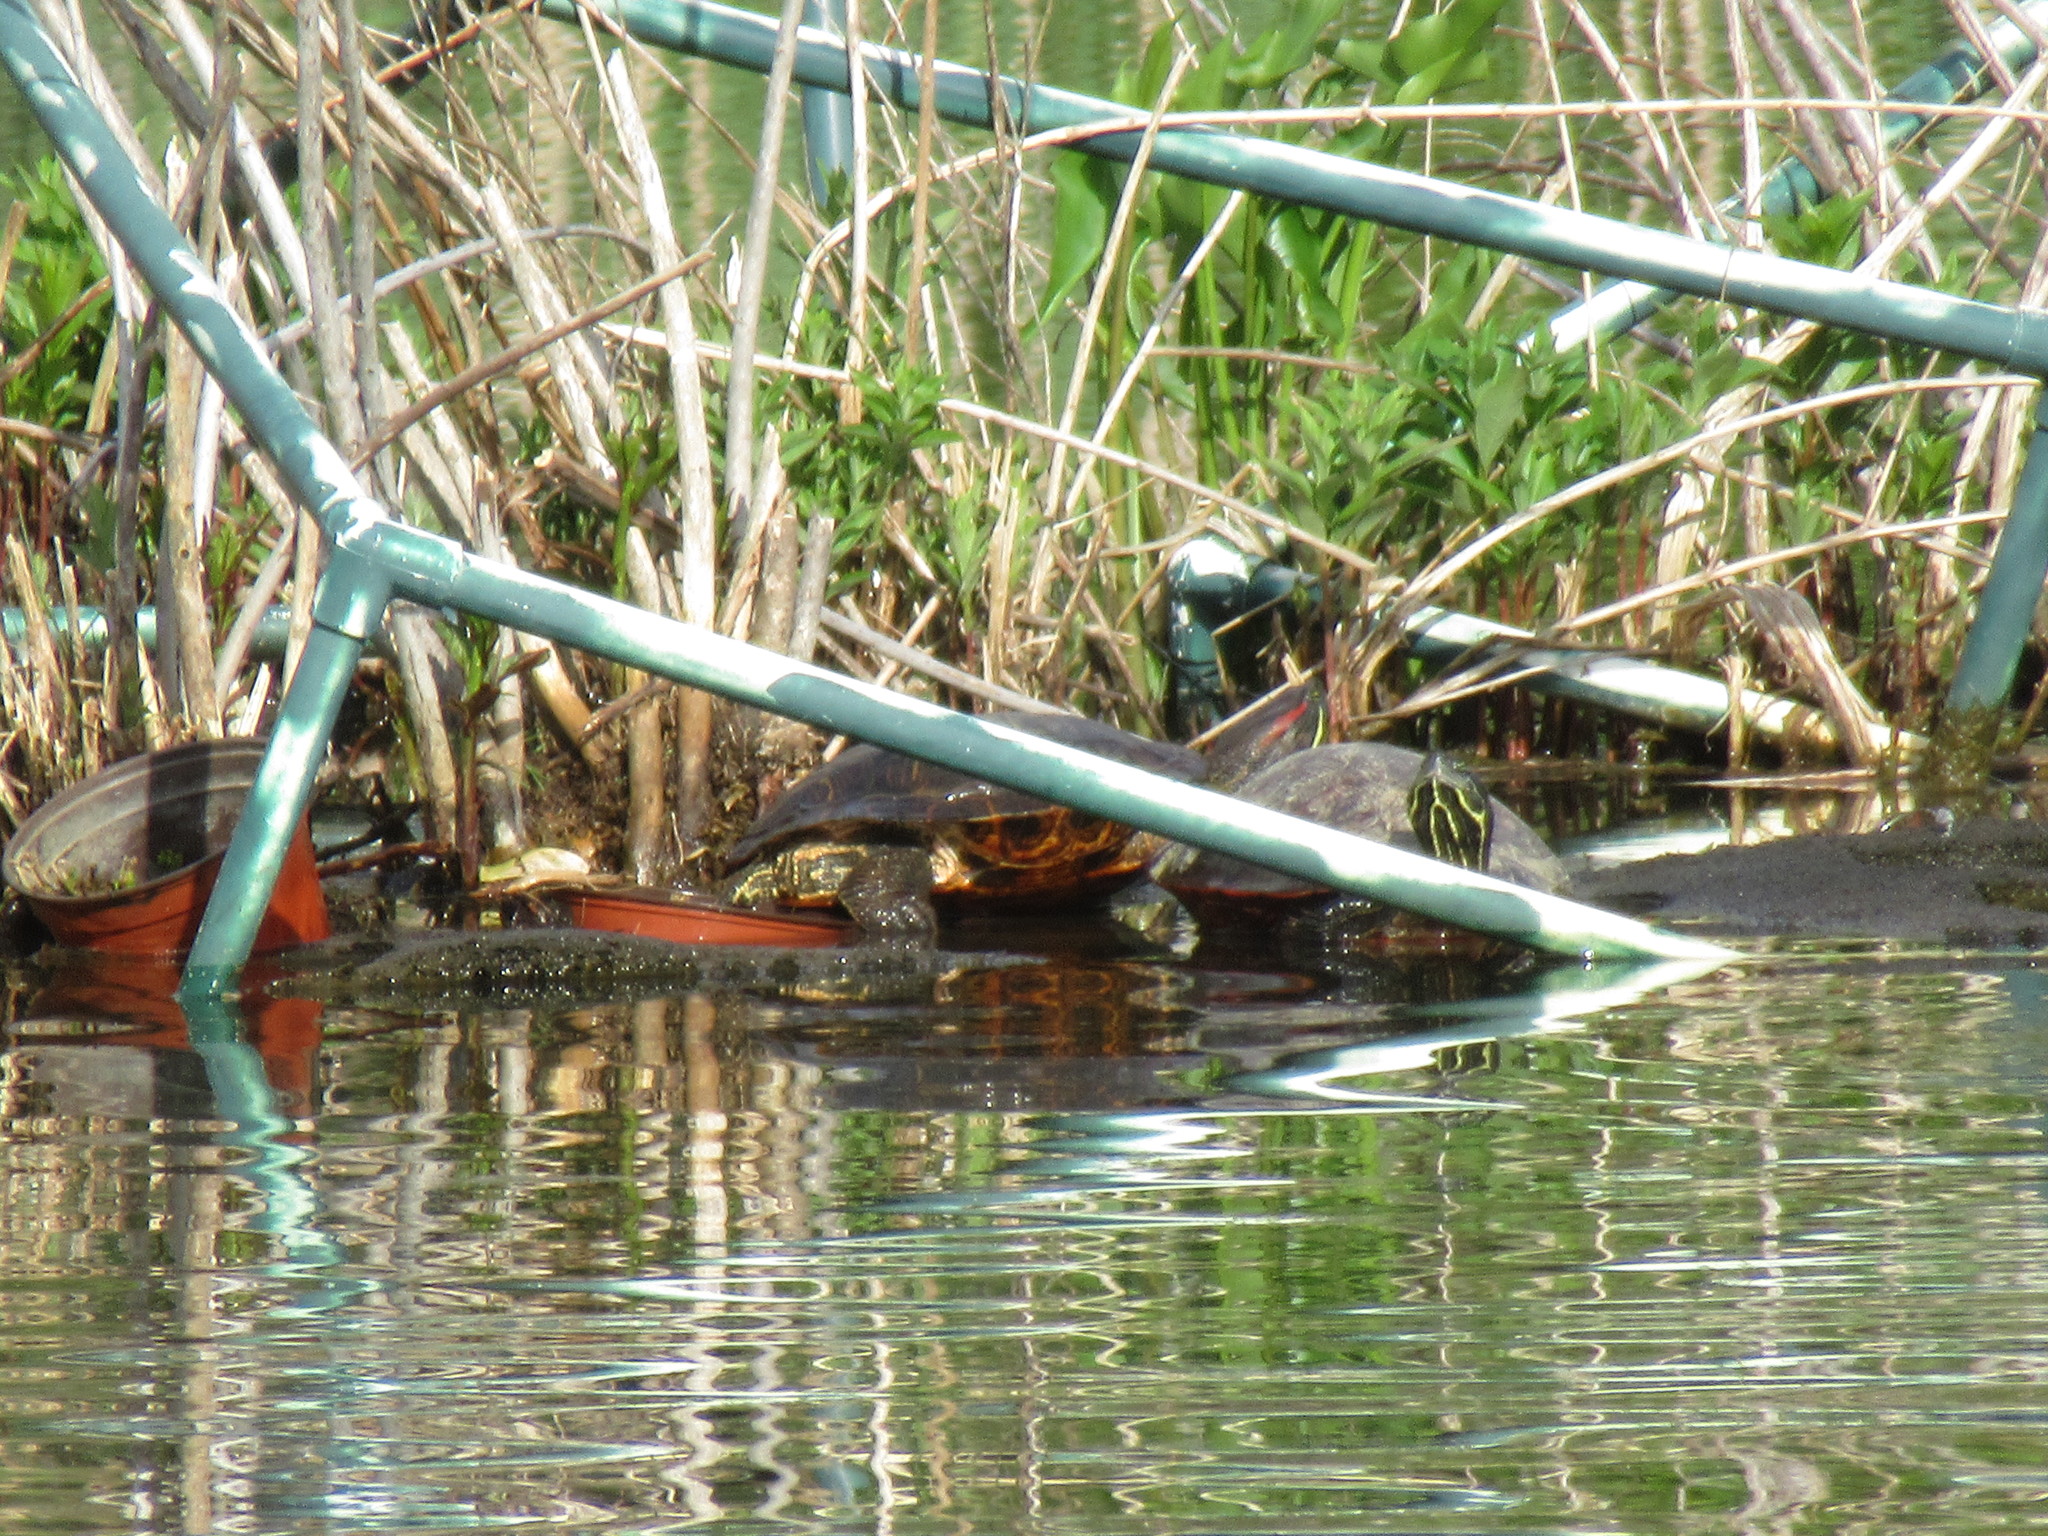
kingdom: Animalia
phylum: Chordata
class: Testudines
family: Emydidae
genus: Trachemys
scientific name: Trachemys scripta
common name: Slider
